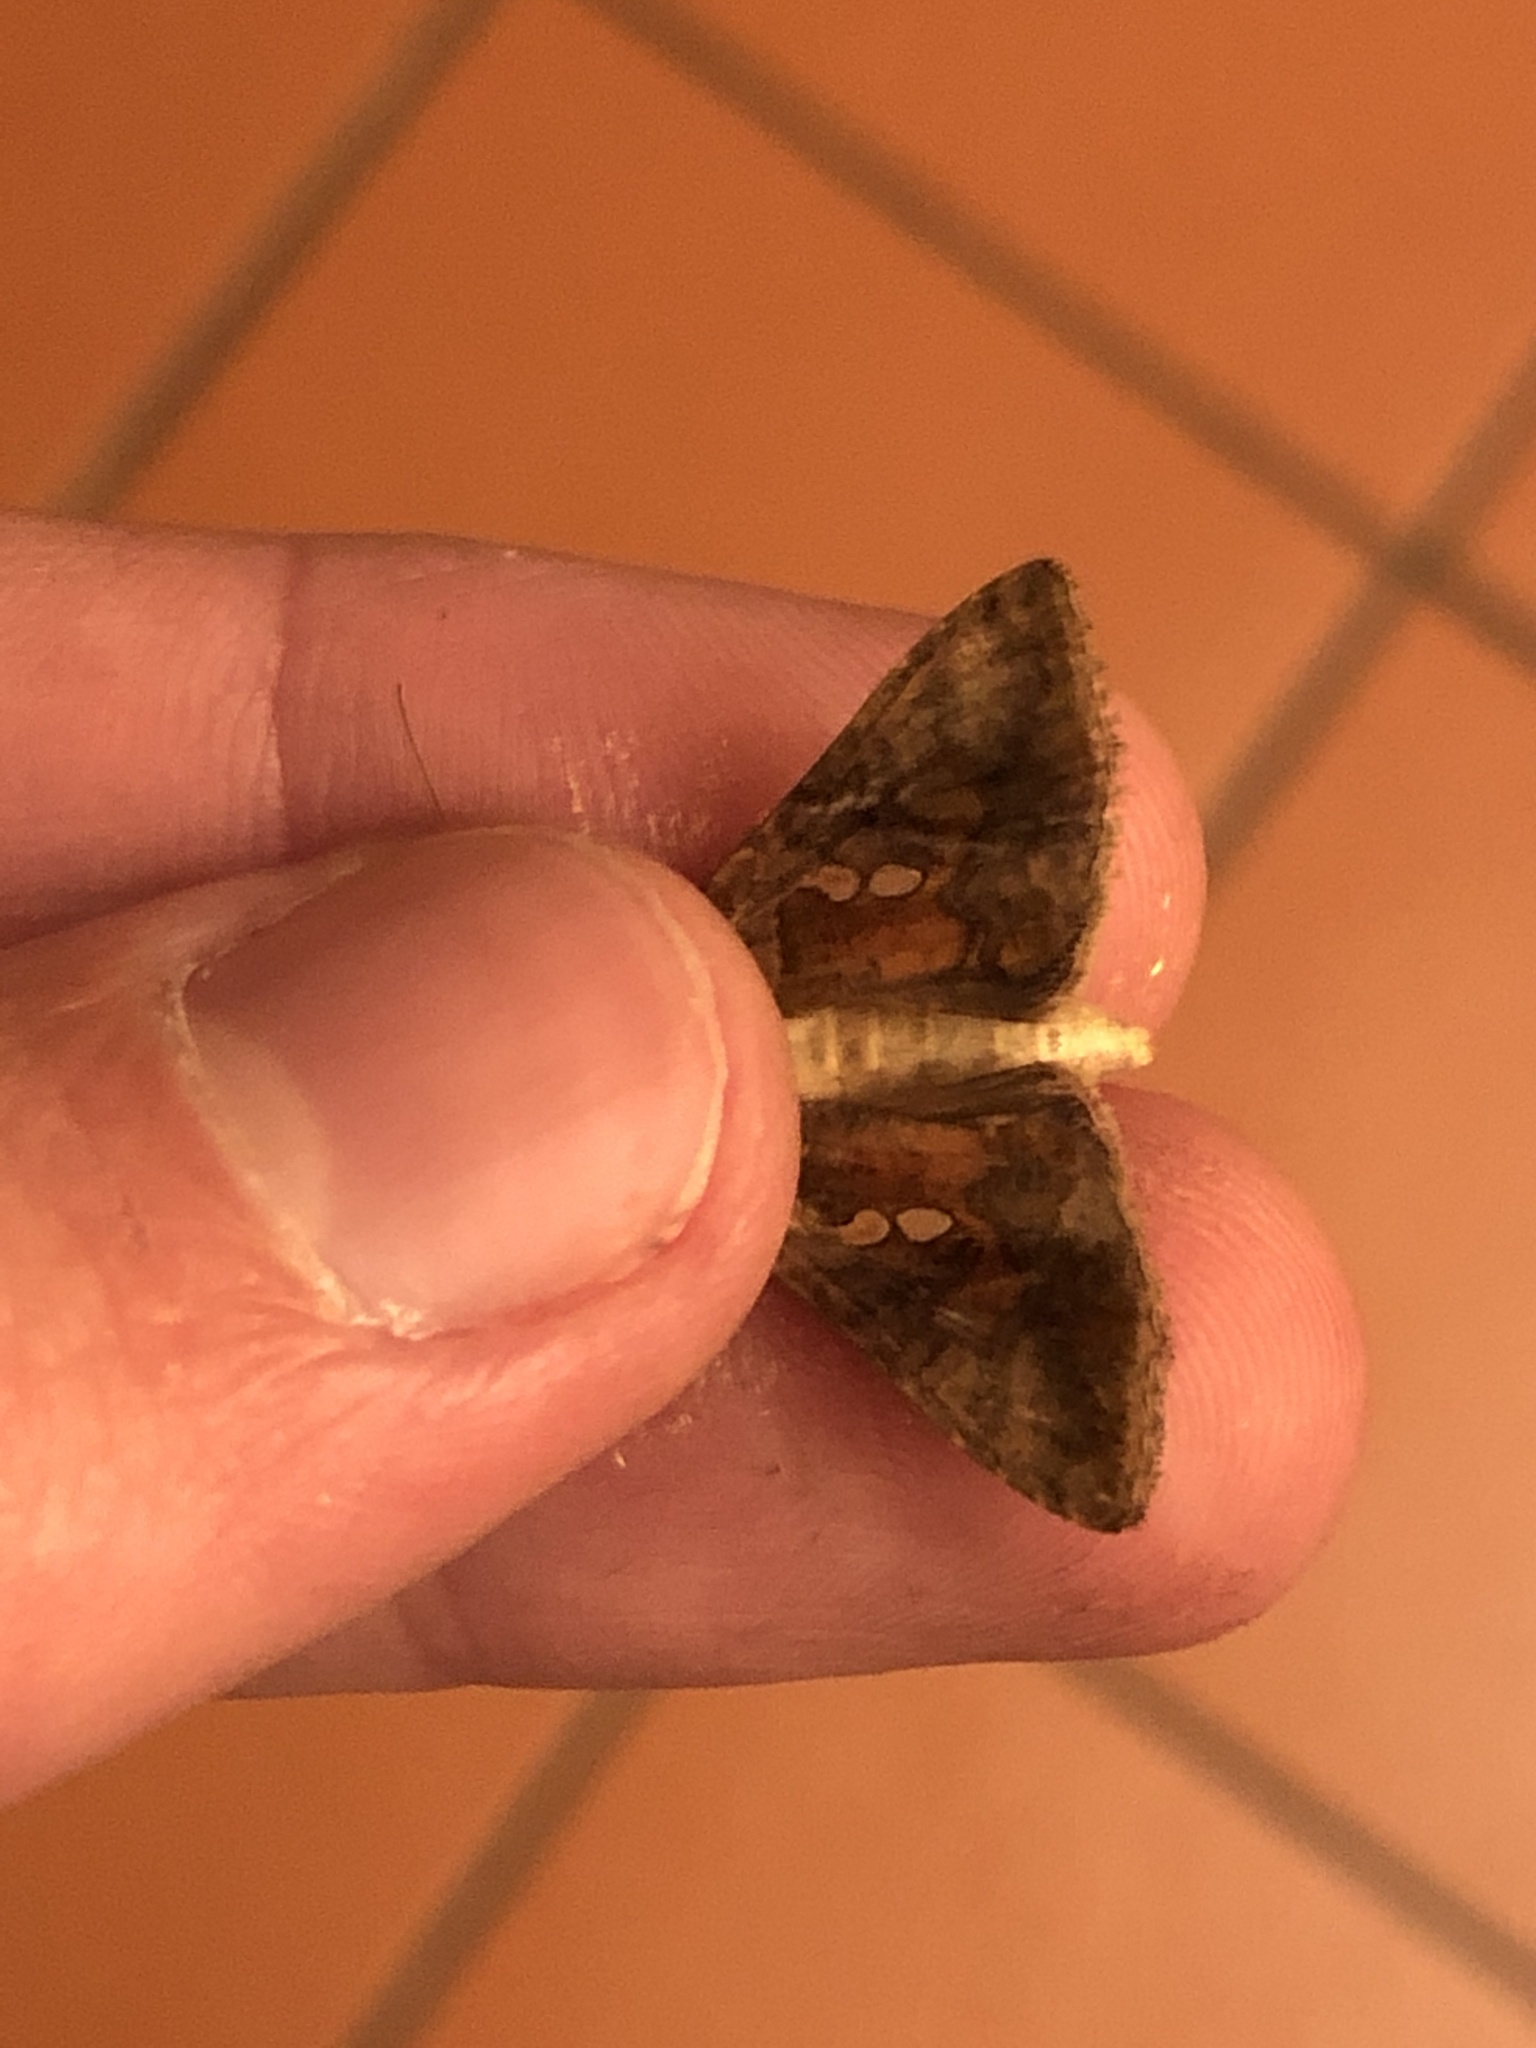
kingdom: Animalia
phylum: Arthropoda
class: Insecta
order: Lepidoptera
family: Noctuidae
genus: Chrysodeixis
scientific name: Chrysodeixis chalcites
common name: Golden twin-spot
